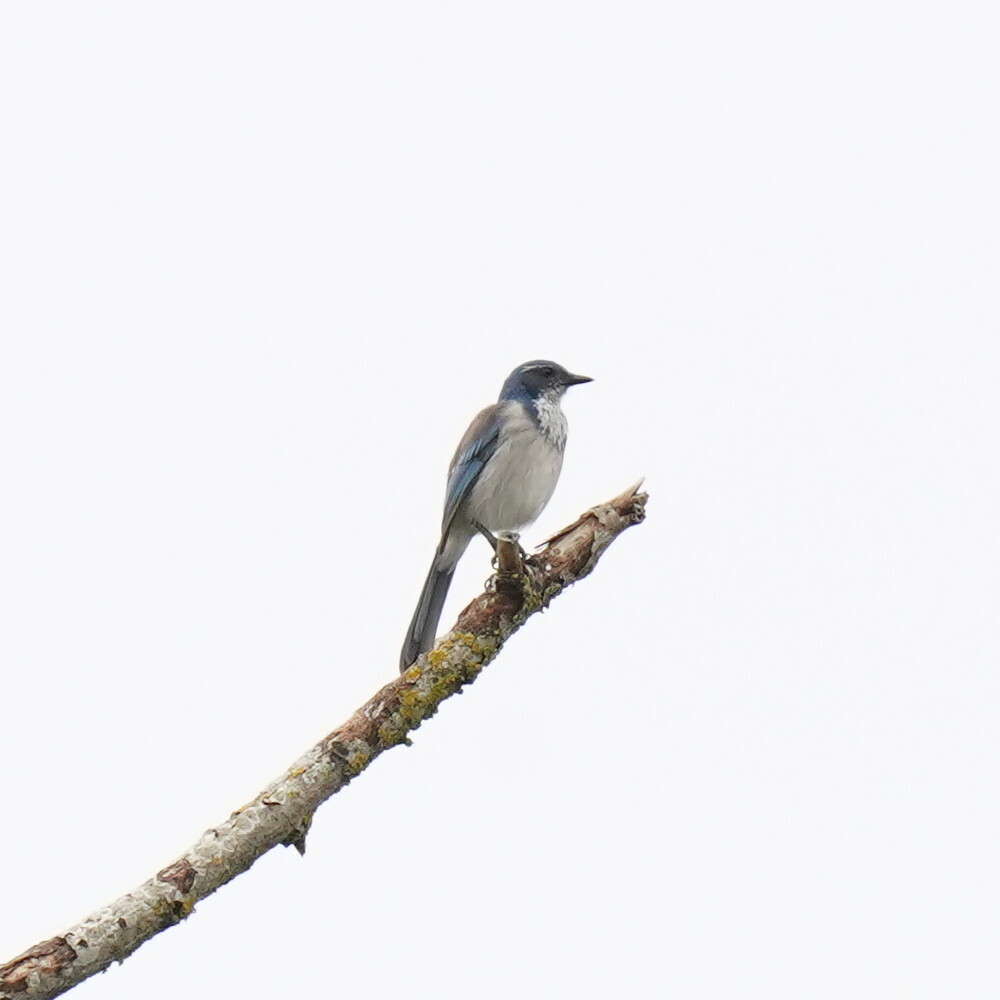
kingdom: Animalia
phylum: Chordata
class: Aves
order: Passeriformes
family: Corvidae
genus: Aphelocoma
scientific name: Aphelocoma californica
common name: California scrub-jay
